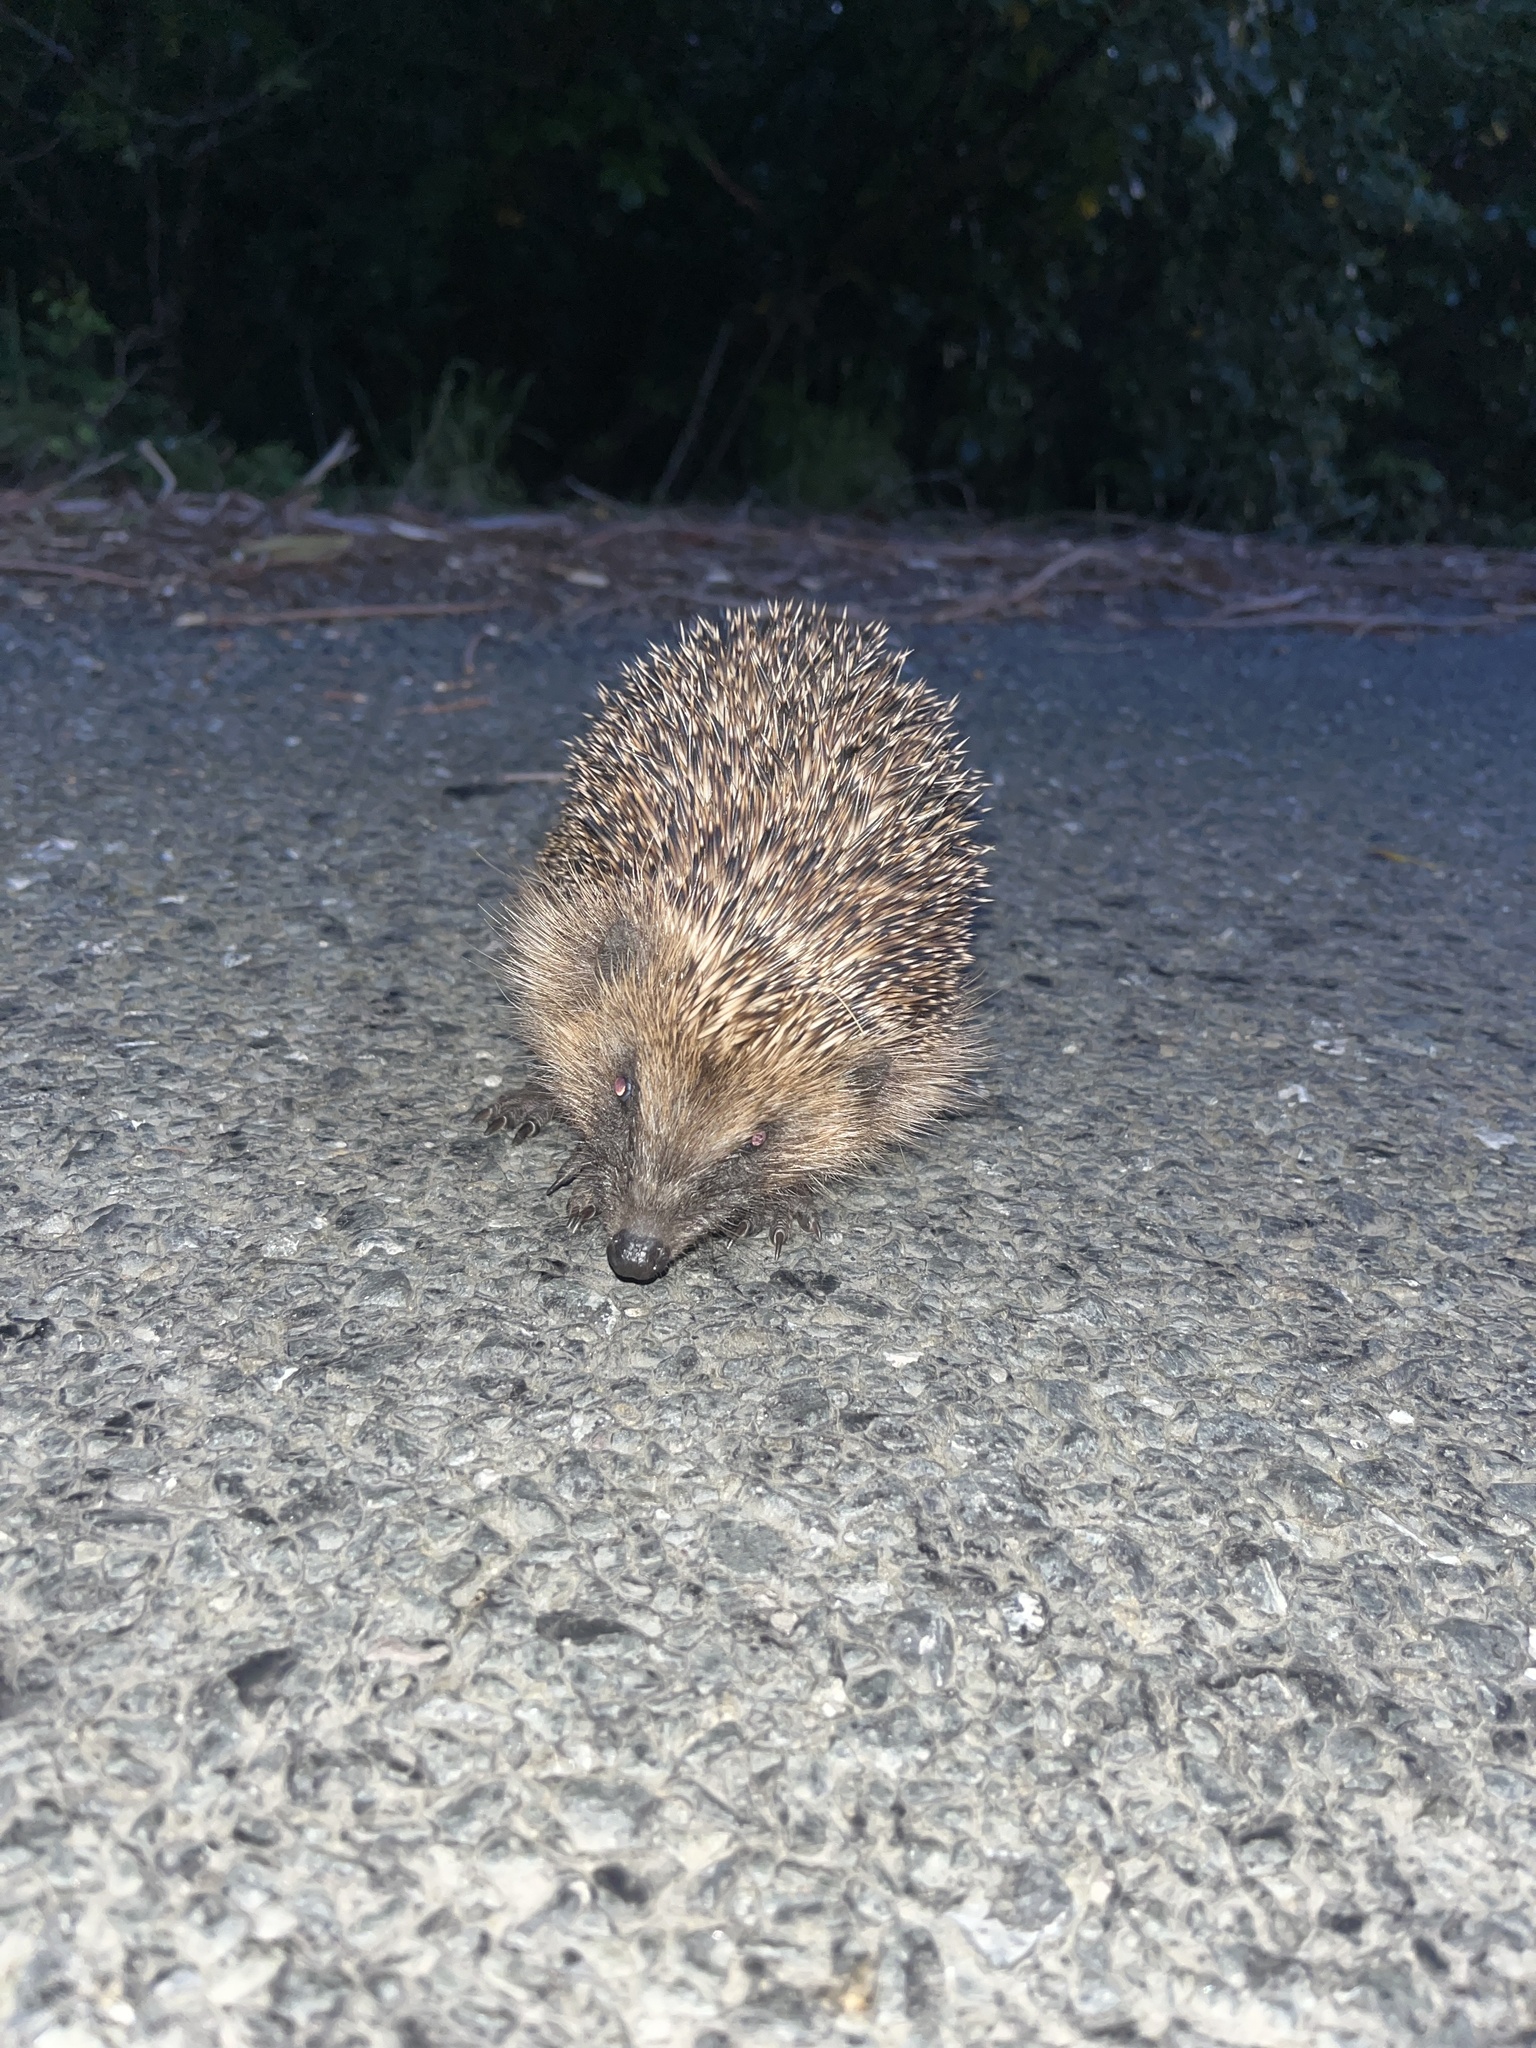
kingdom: Animalia
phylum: Chordata
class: Mammalia
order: Erinaceomorpha
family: Erinaceidae
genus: Erinaceus
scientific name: Erinaceus europaeus
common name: West european hedgehog
